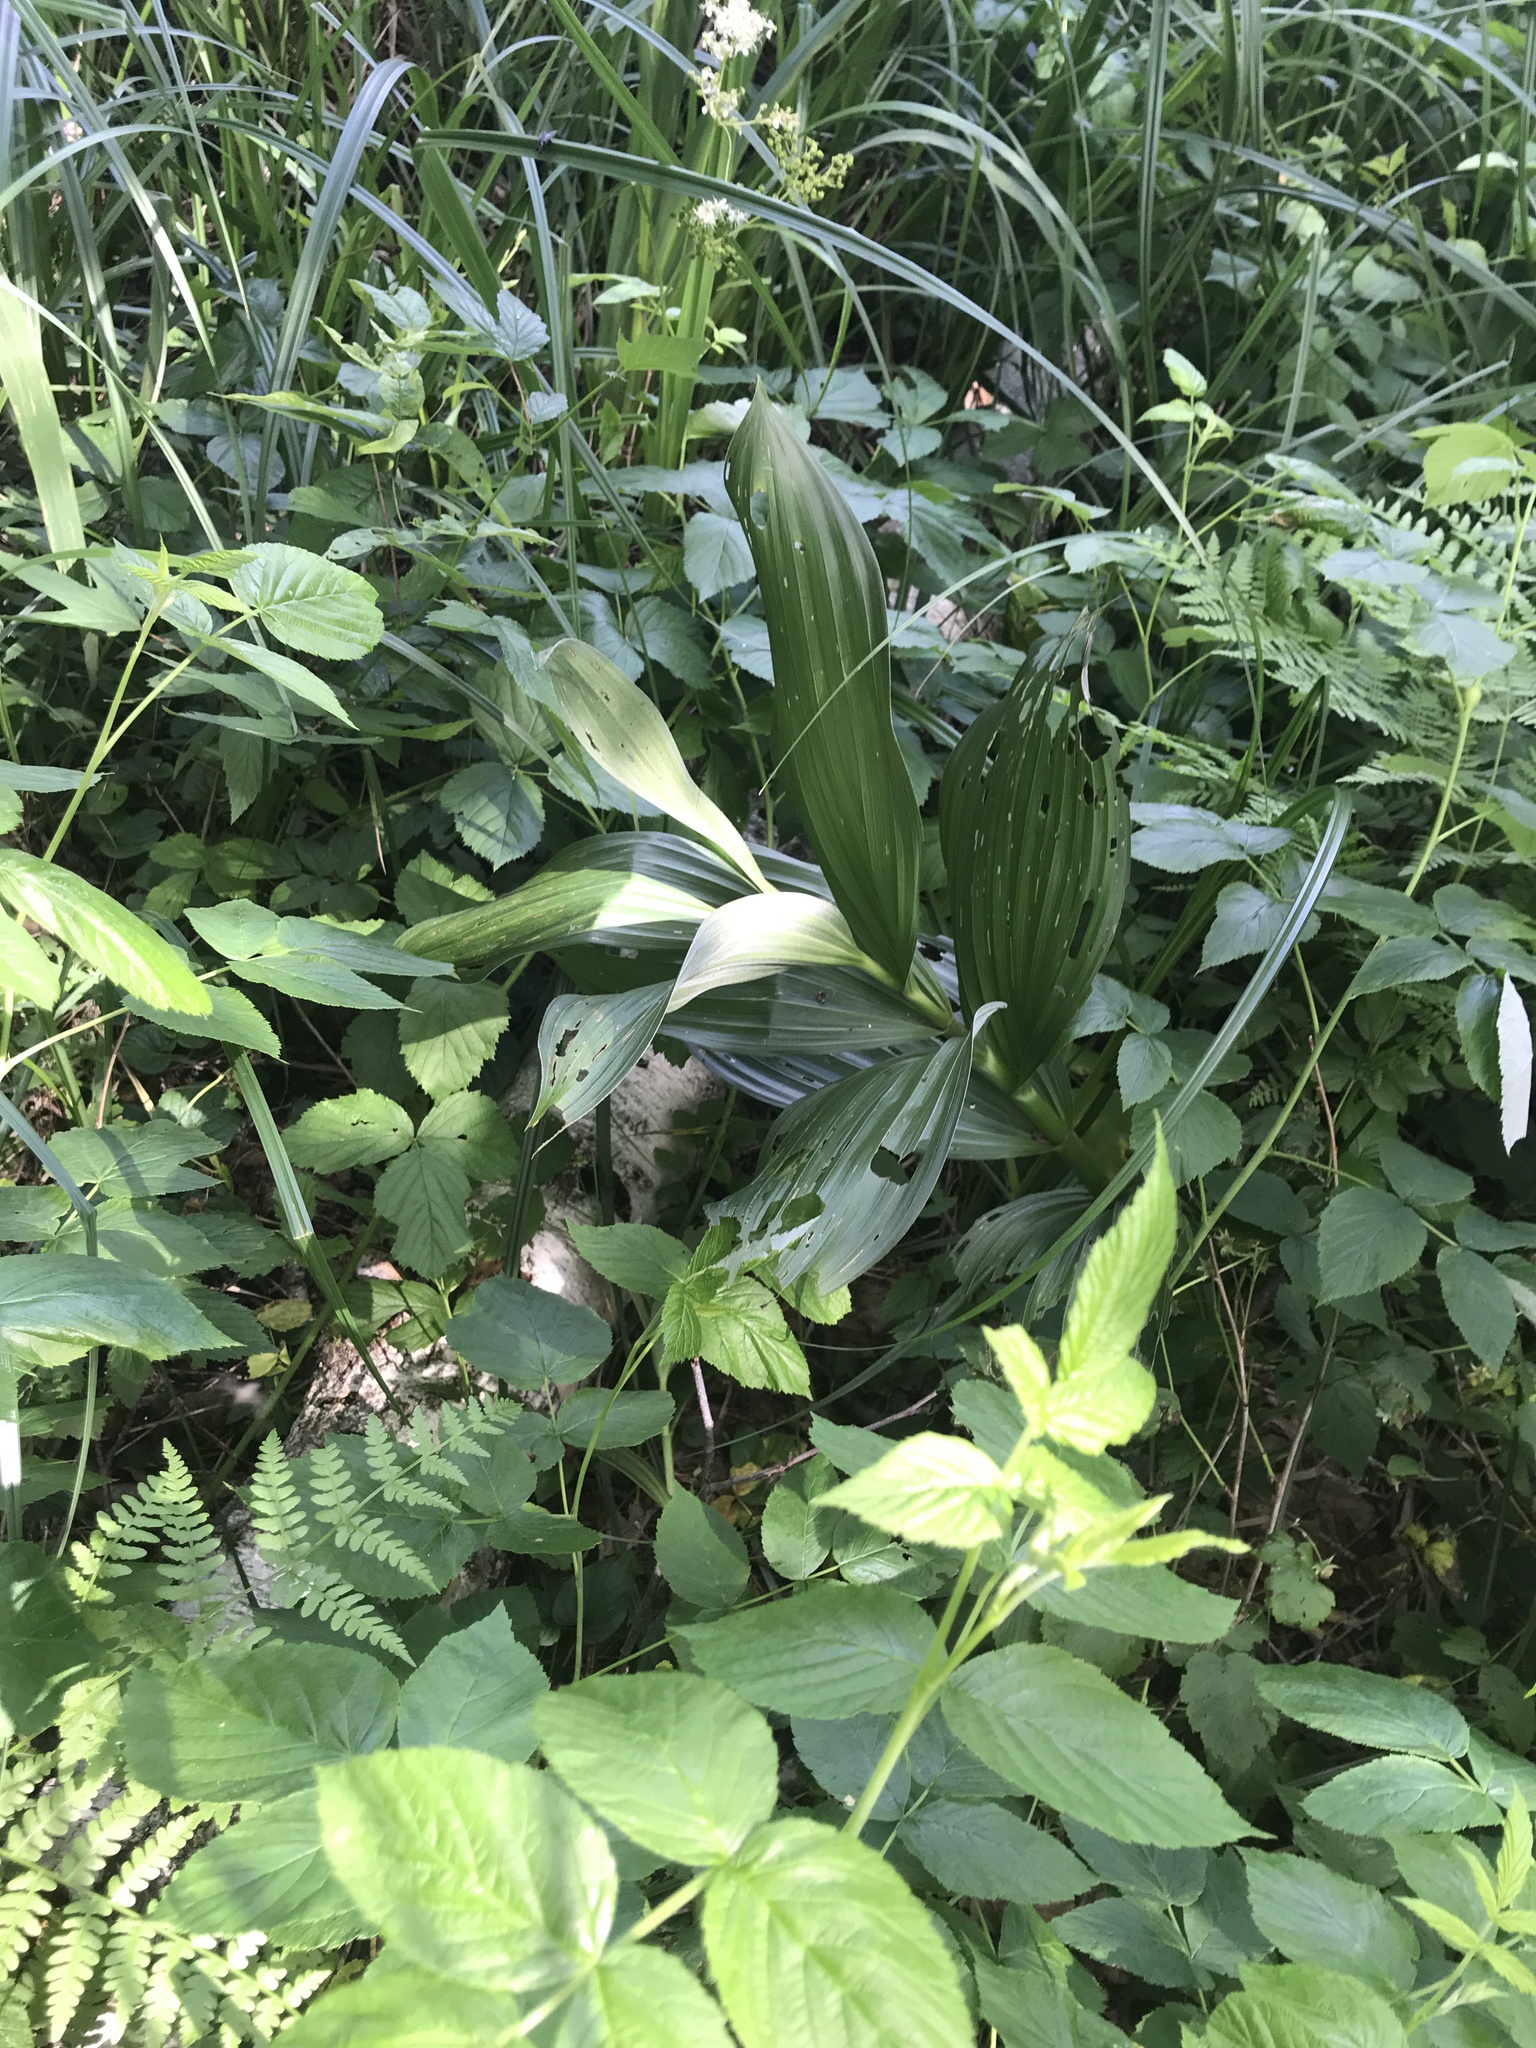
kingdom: Plantae
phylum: Tracheophyta
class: Liliopsida
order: Liliales
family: Melanthiaceae
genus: Veratrum
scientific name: Veratrum lobelianum
